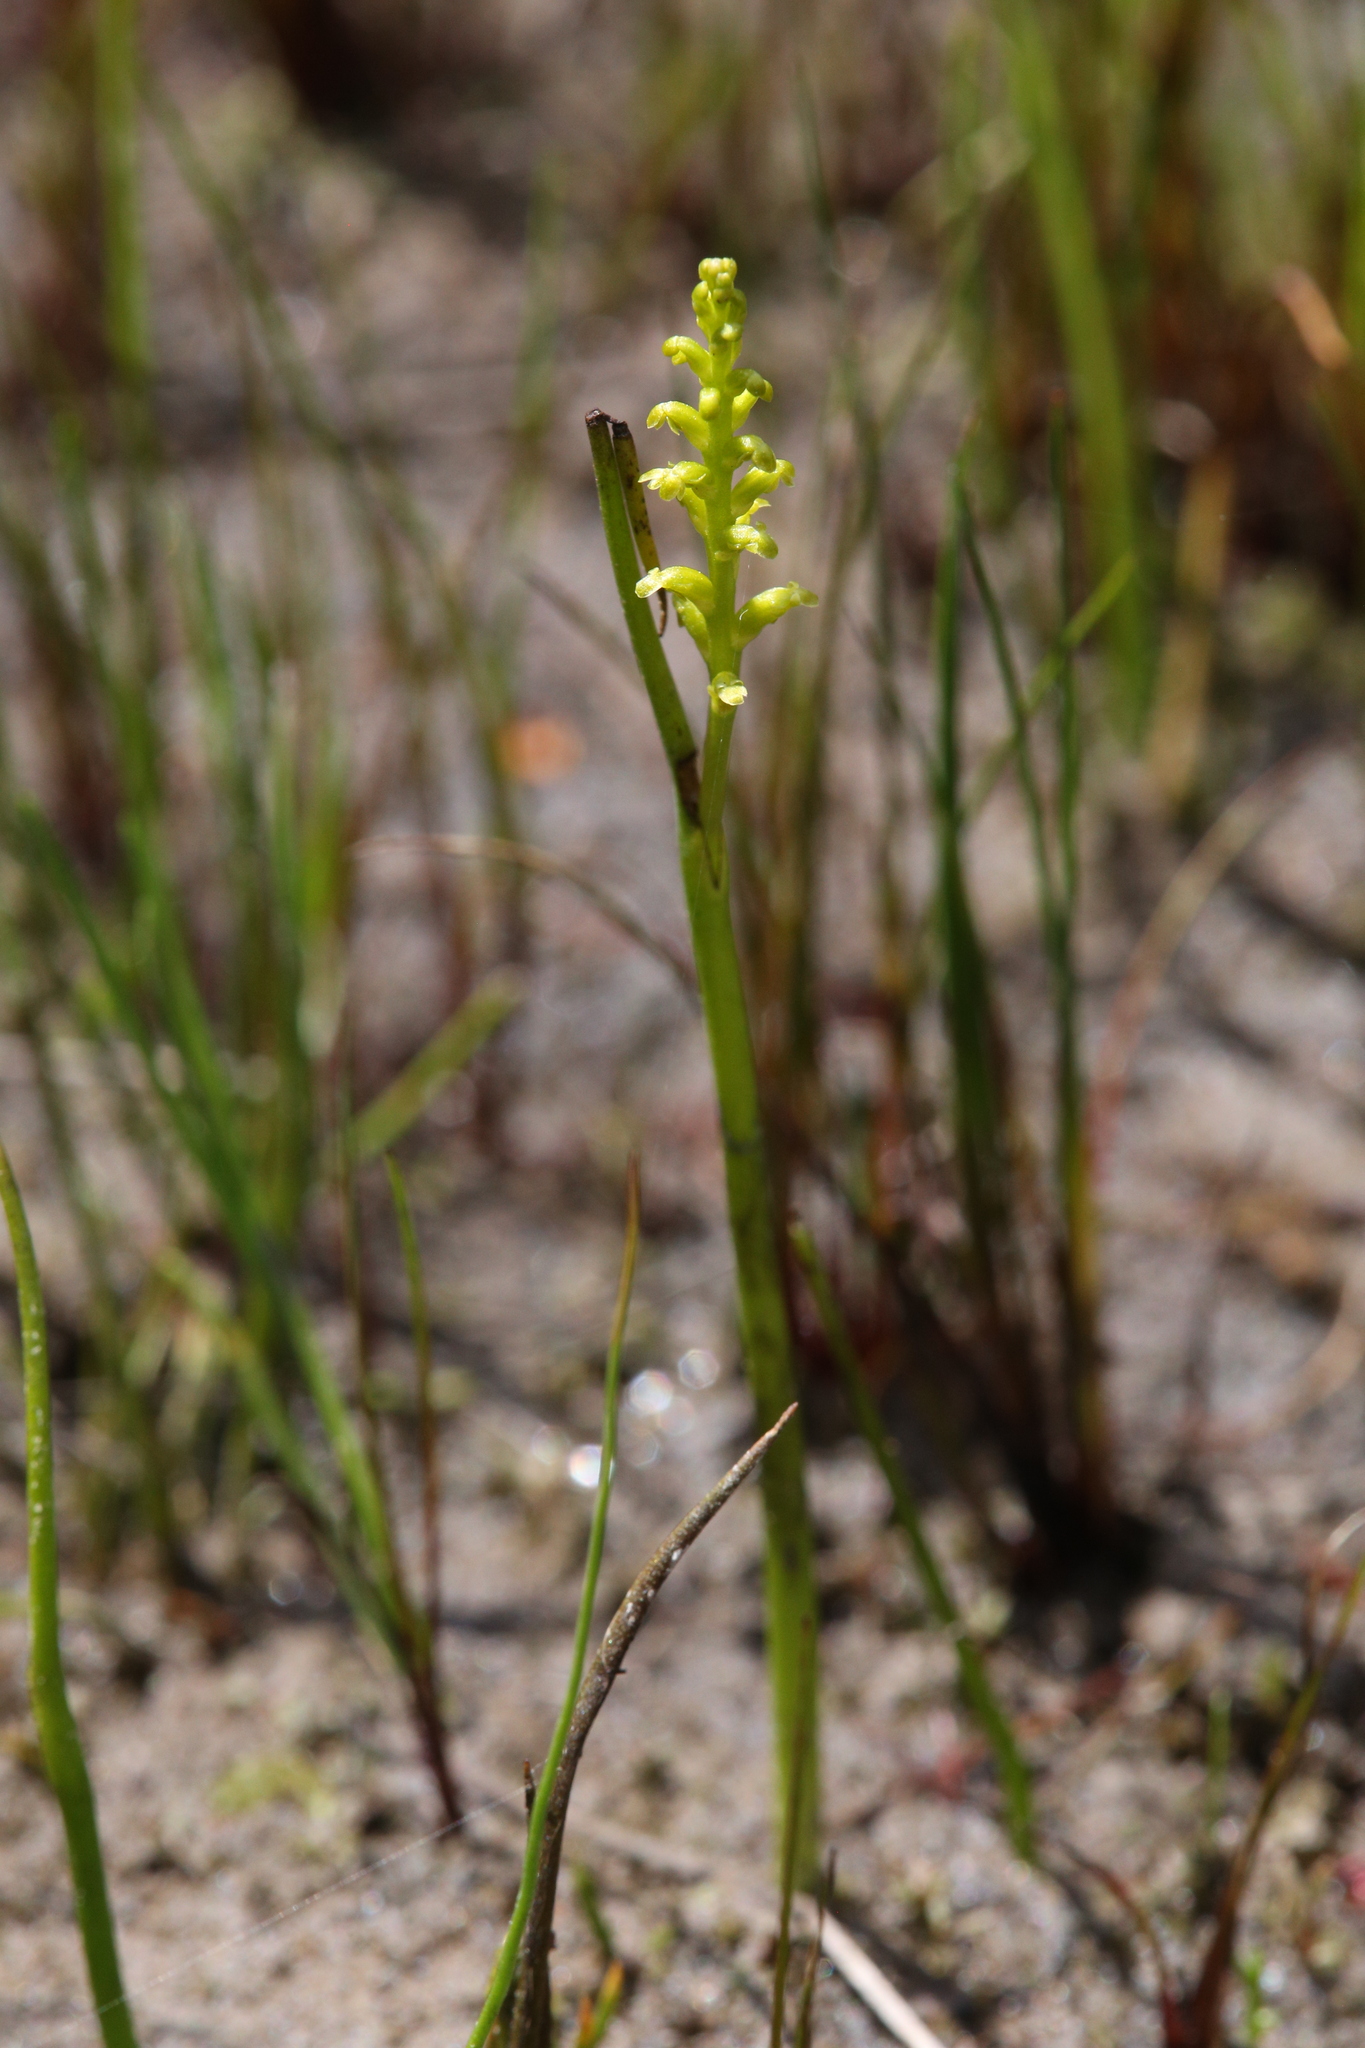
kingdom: Plantae
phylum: Tracheophyta
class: Liliopsida
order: Asparagales
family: Orchidaceae
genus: Microtis
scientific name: Microtis atrata
